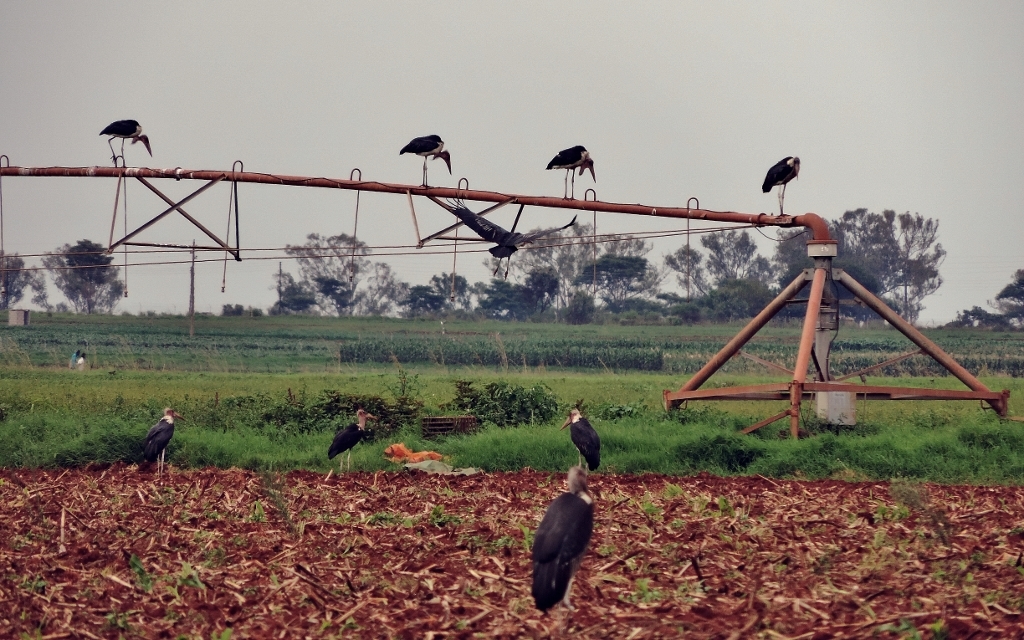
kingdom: Animalia
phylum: Chordata
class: Aves
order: Ciconiiformes
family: Ciconiidae
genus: Leptoptilos
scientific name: Leptoptilos crumenifer
